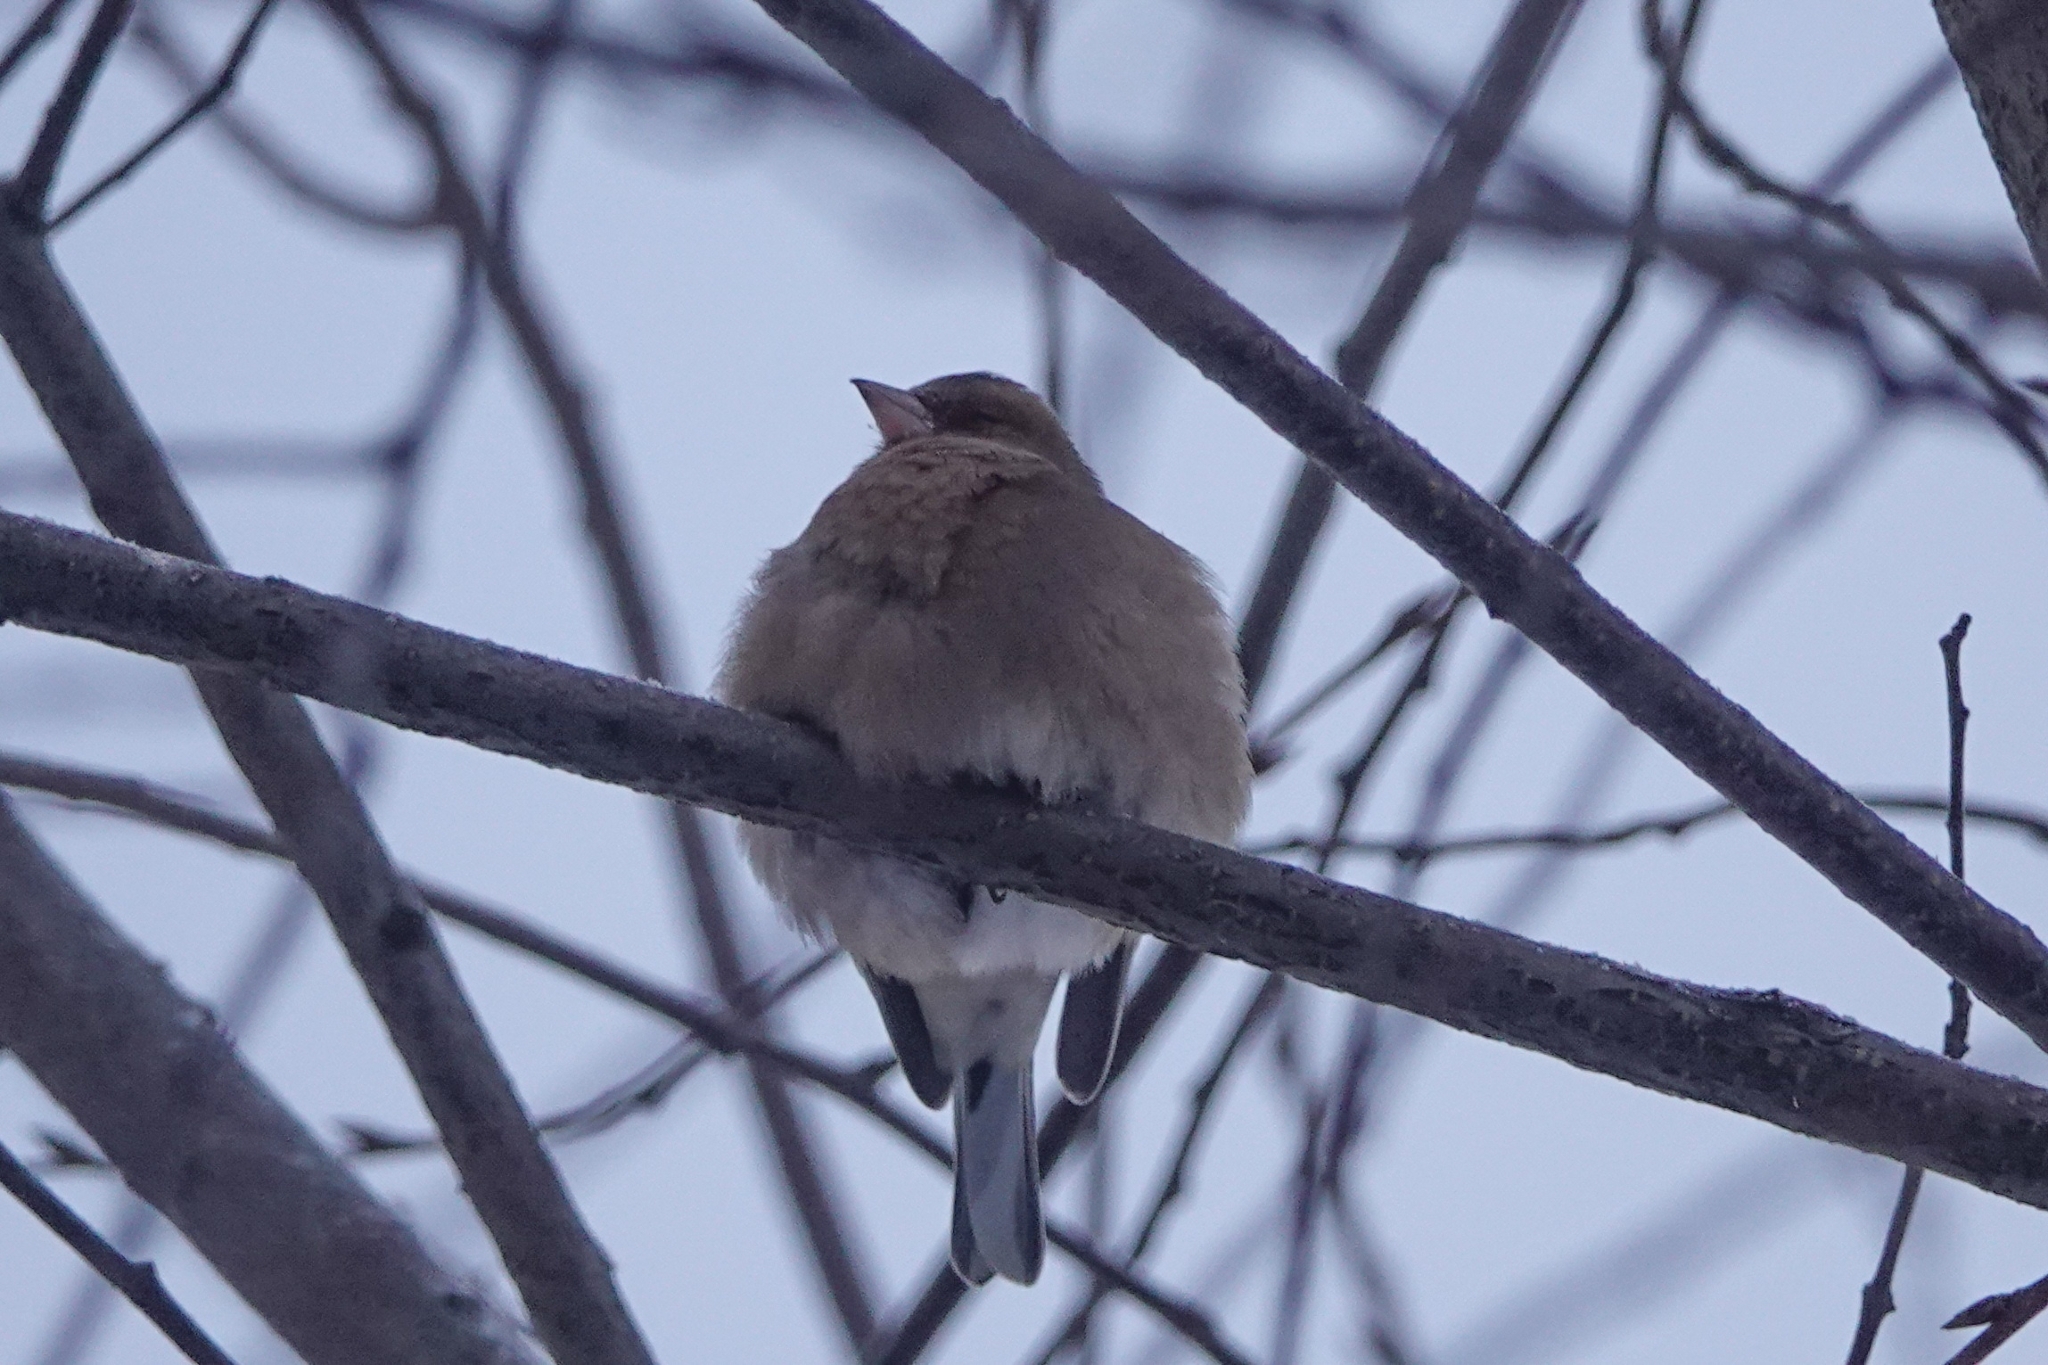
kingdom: Animalia
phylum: Chordata
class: Aves
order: Passeriformes
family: Fringillidae
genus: Fringilla
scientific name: Fringilla coelebs
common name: Common chaffinch
